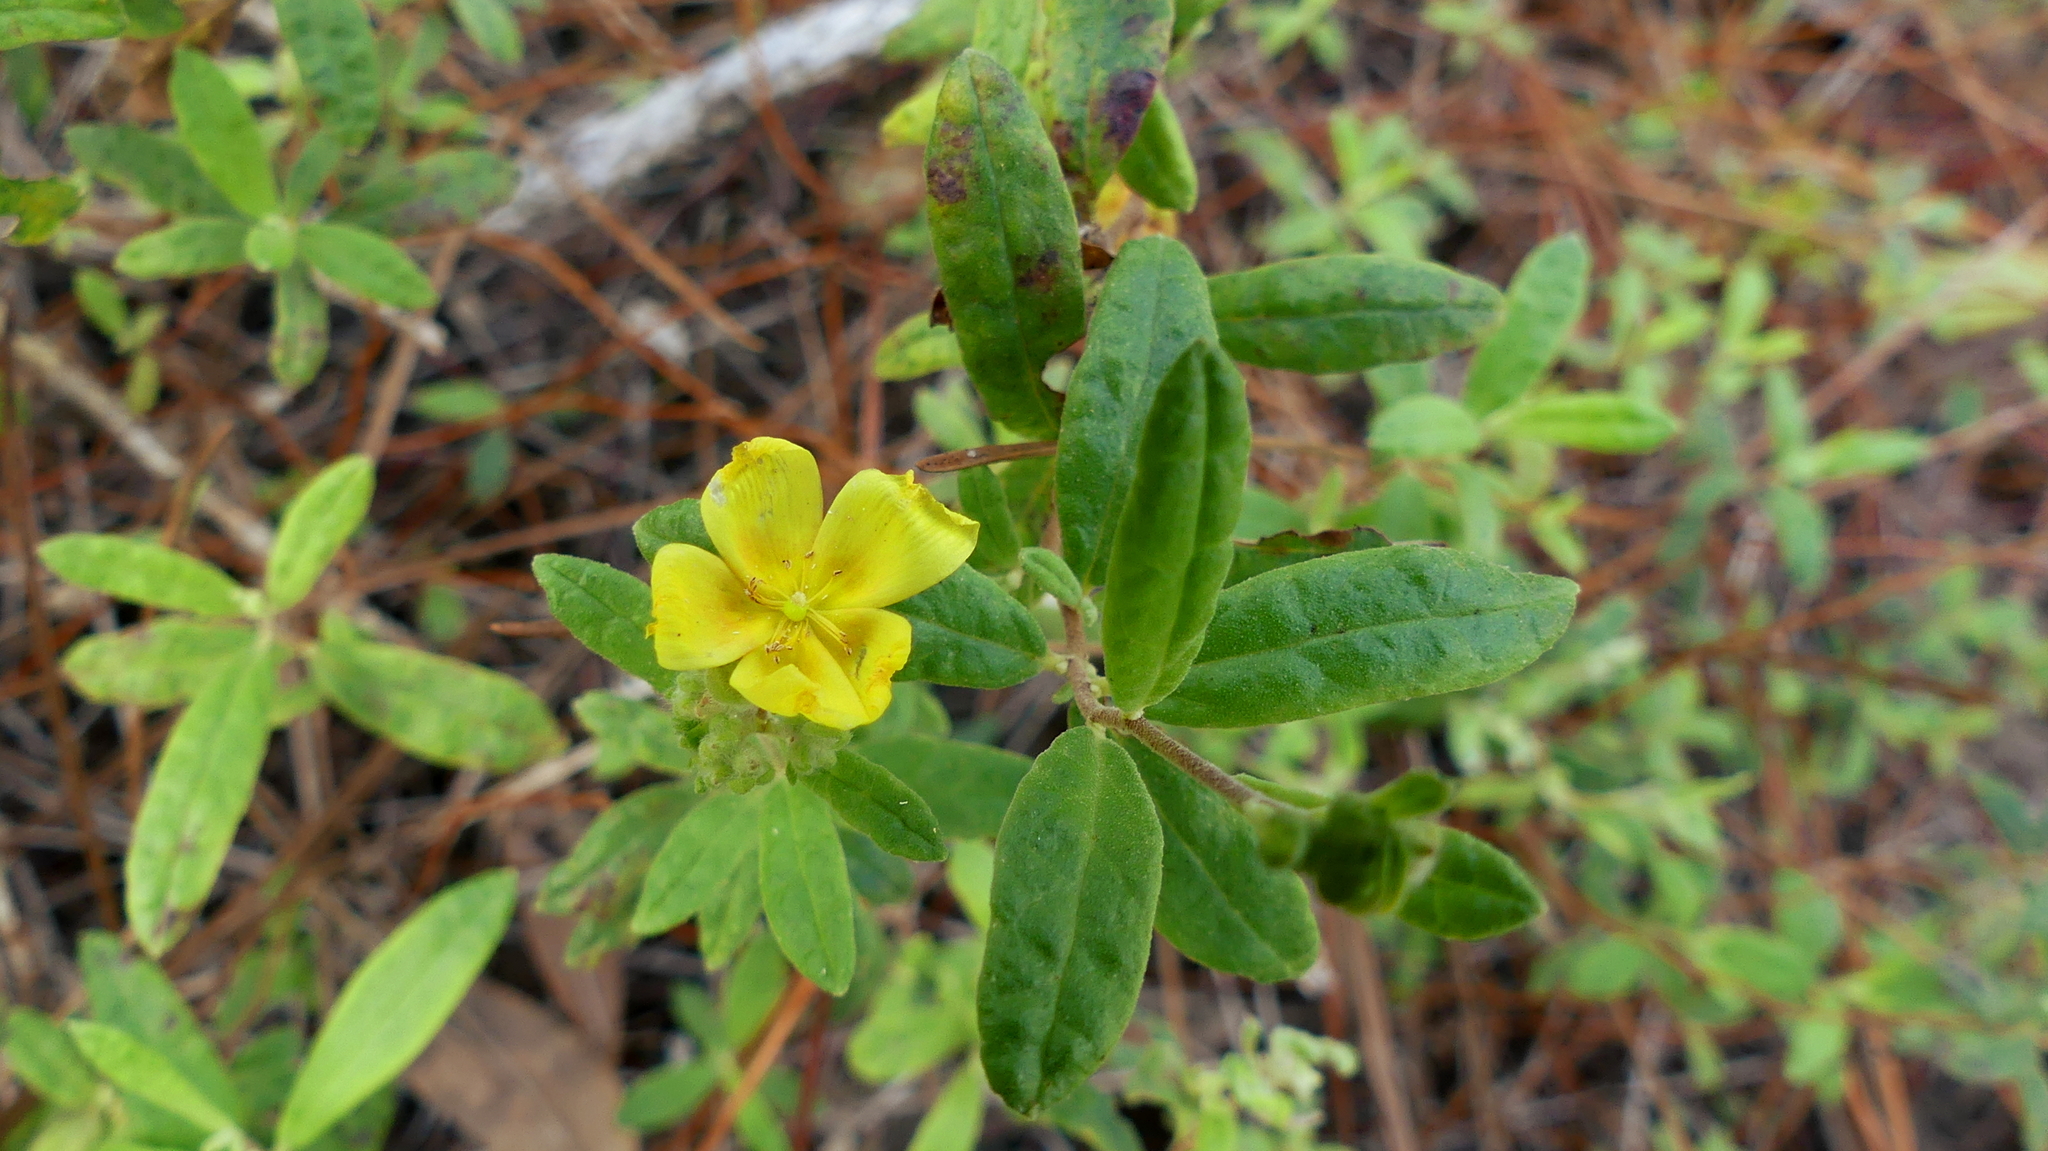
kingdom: Plantae
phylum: Tracheophyta
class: Magnoliopsida
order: Malvales
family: Cistaceae
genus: Crocanthemum
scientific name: Crocanthemum corymbosum
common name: Pinebarren sun-rose
